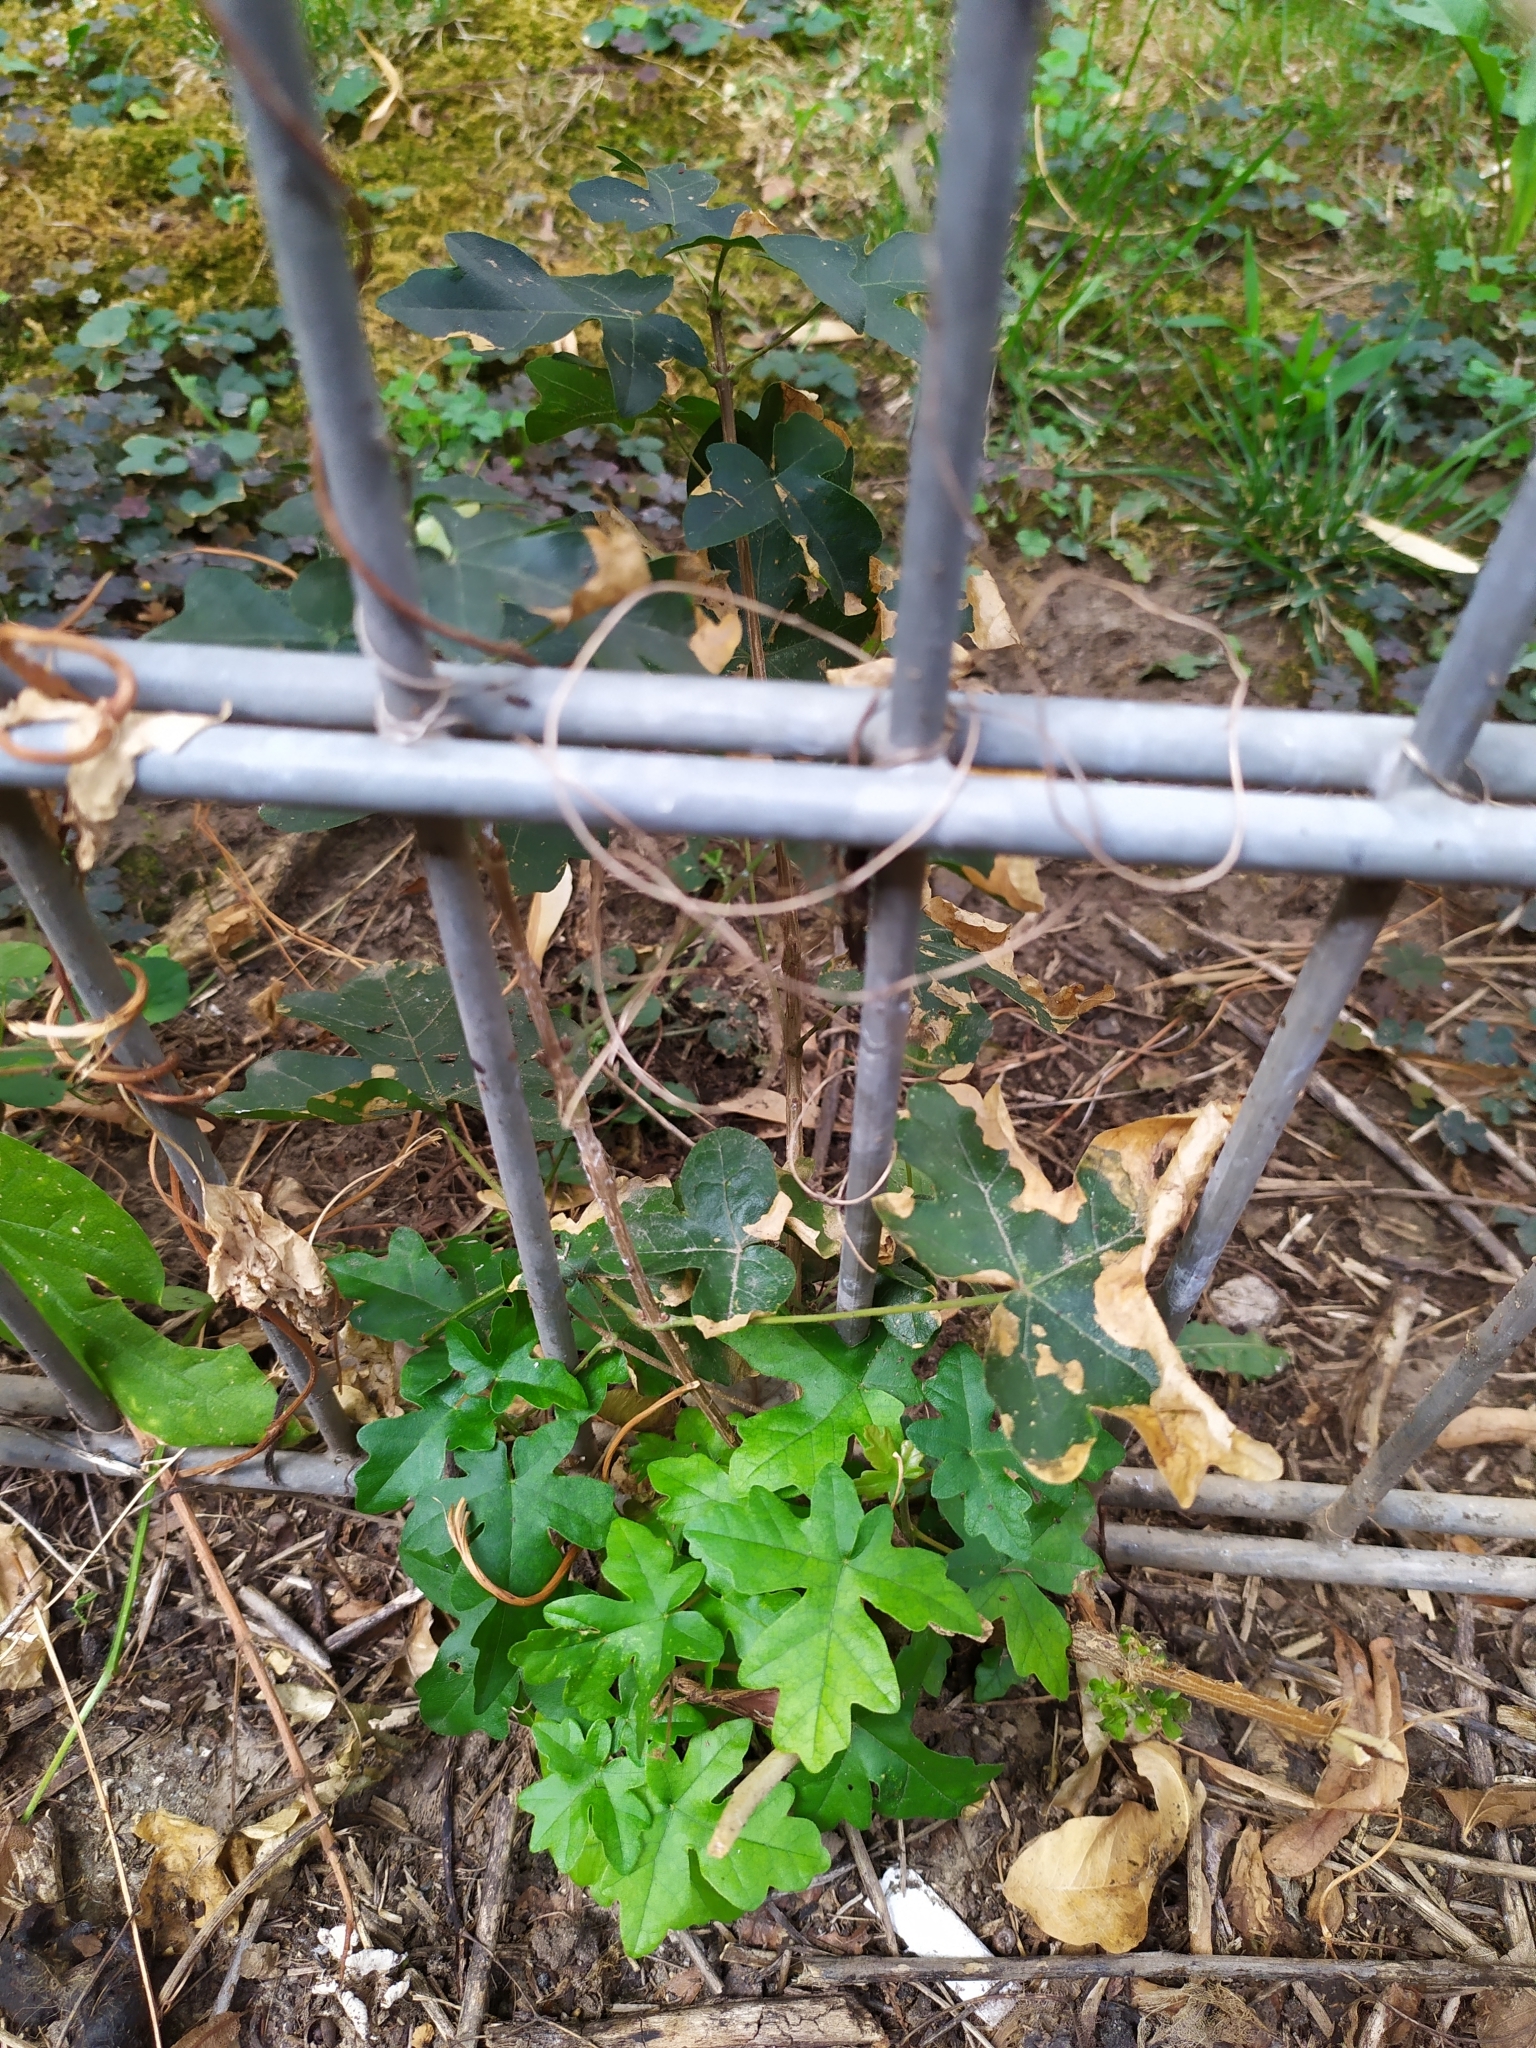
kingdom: Plantae
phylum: Tracheophyta
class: Magnoliopsida
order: Sapindales
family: Sapindaceae
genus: Acer
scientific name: Acer campestre
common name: Field maple
